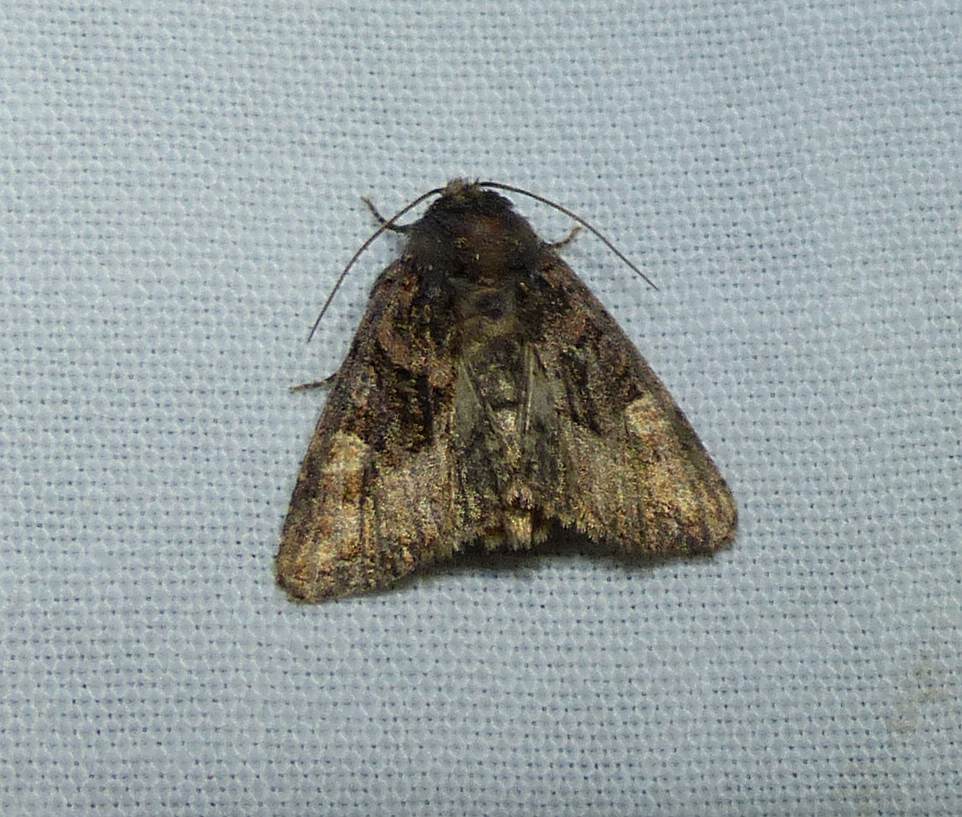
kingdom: Animalia
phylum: Arthropoda
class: Insecta
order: Lepidoptera
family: Noctuidae
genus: Euplexia
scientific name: Euplexia benesimilis
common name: American angle shades
